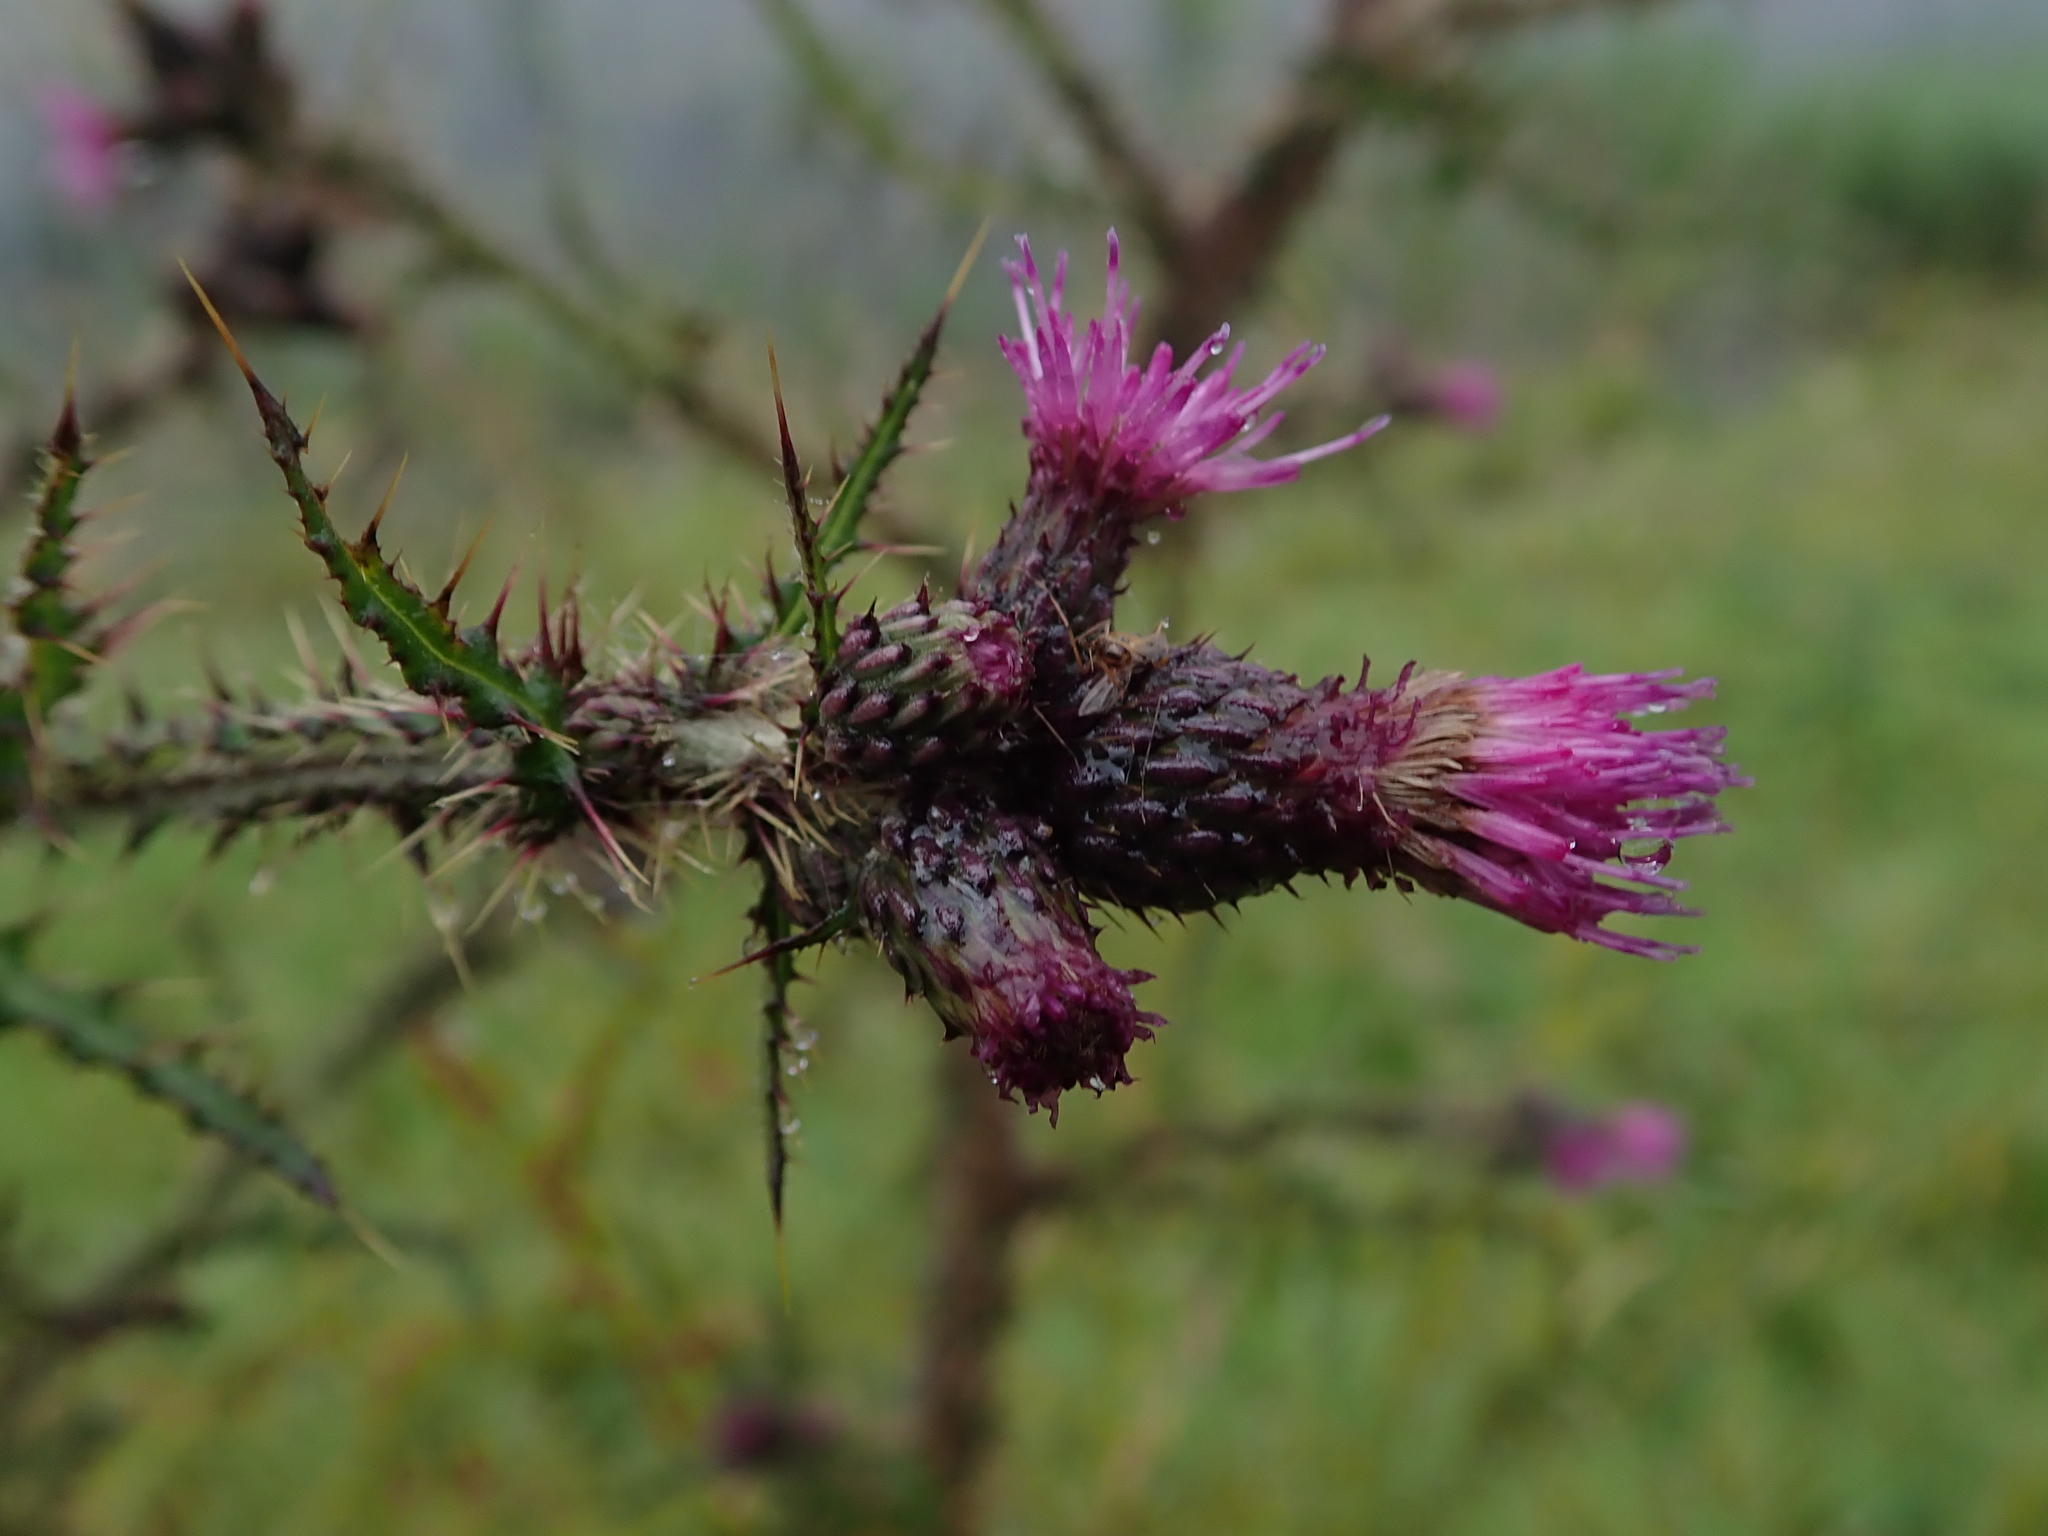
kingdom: Plantae
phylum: Tracheophyta
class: Magnoliopsida
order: Asterales
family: Asteraceae
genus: Cirsium
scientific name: Cirsium palustre
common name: Marsh thistle
